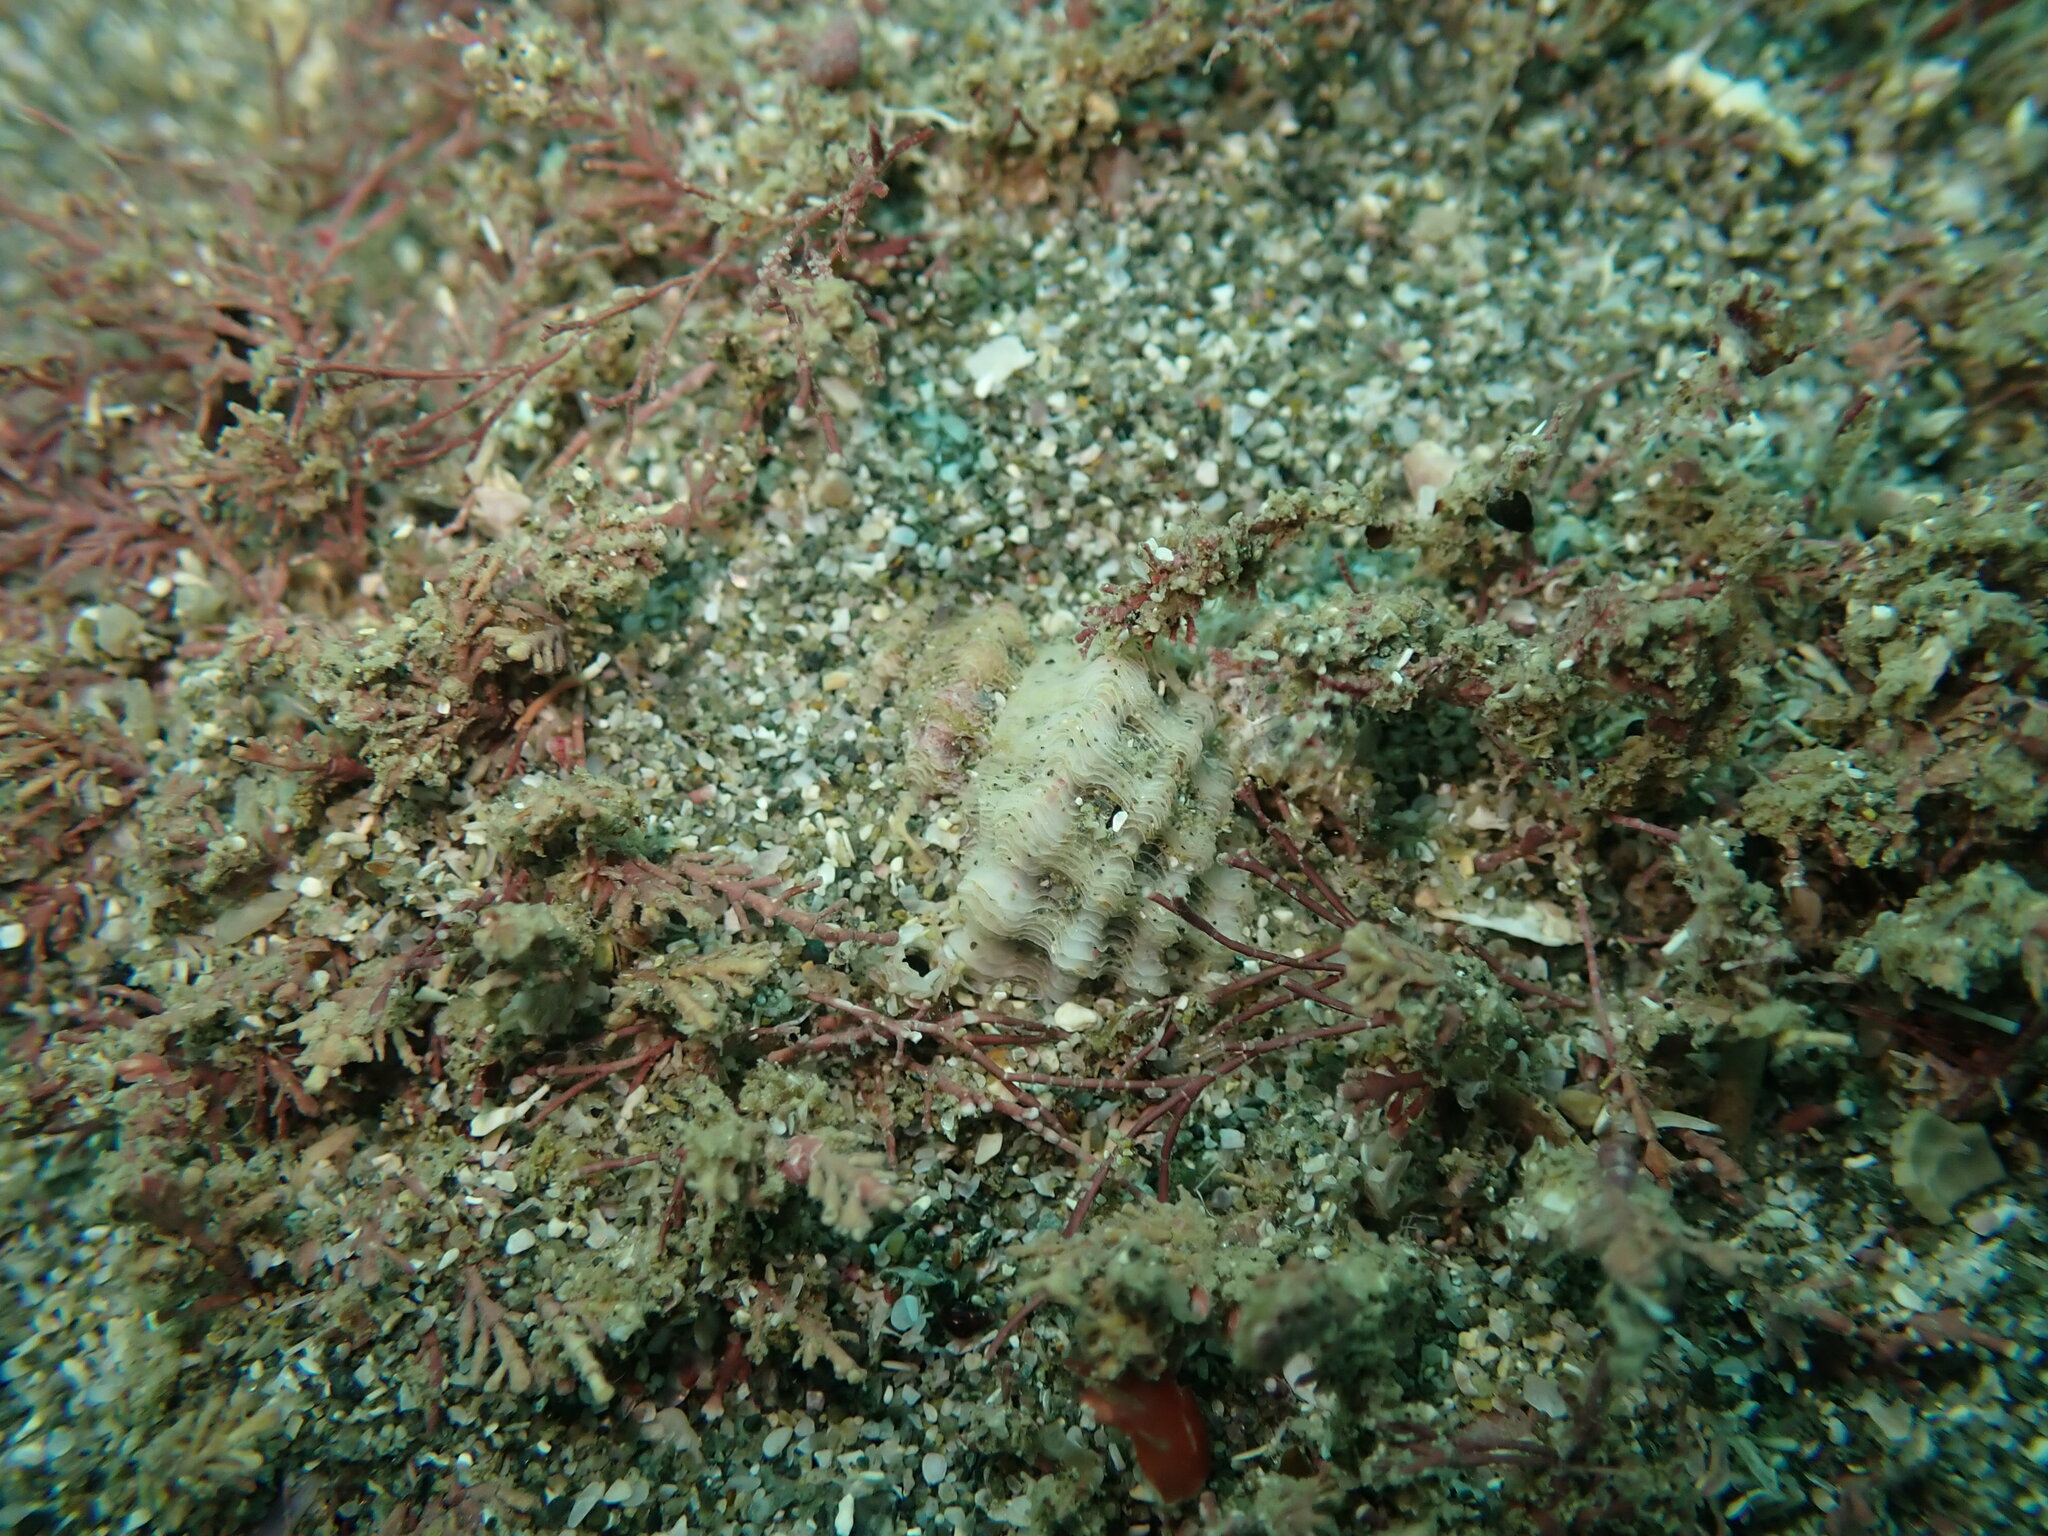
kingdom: Animalia
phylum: Mollusca
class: Gastropoda
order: Neogastropoda
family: Muricidae
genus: Paratrophon
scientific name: Paratrophon quoyi
